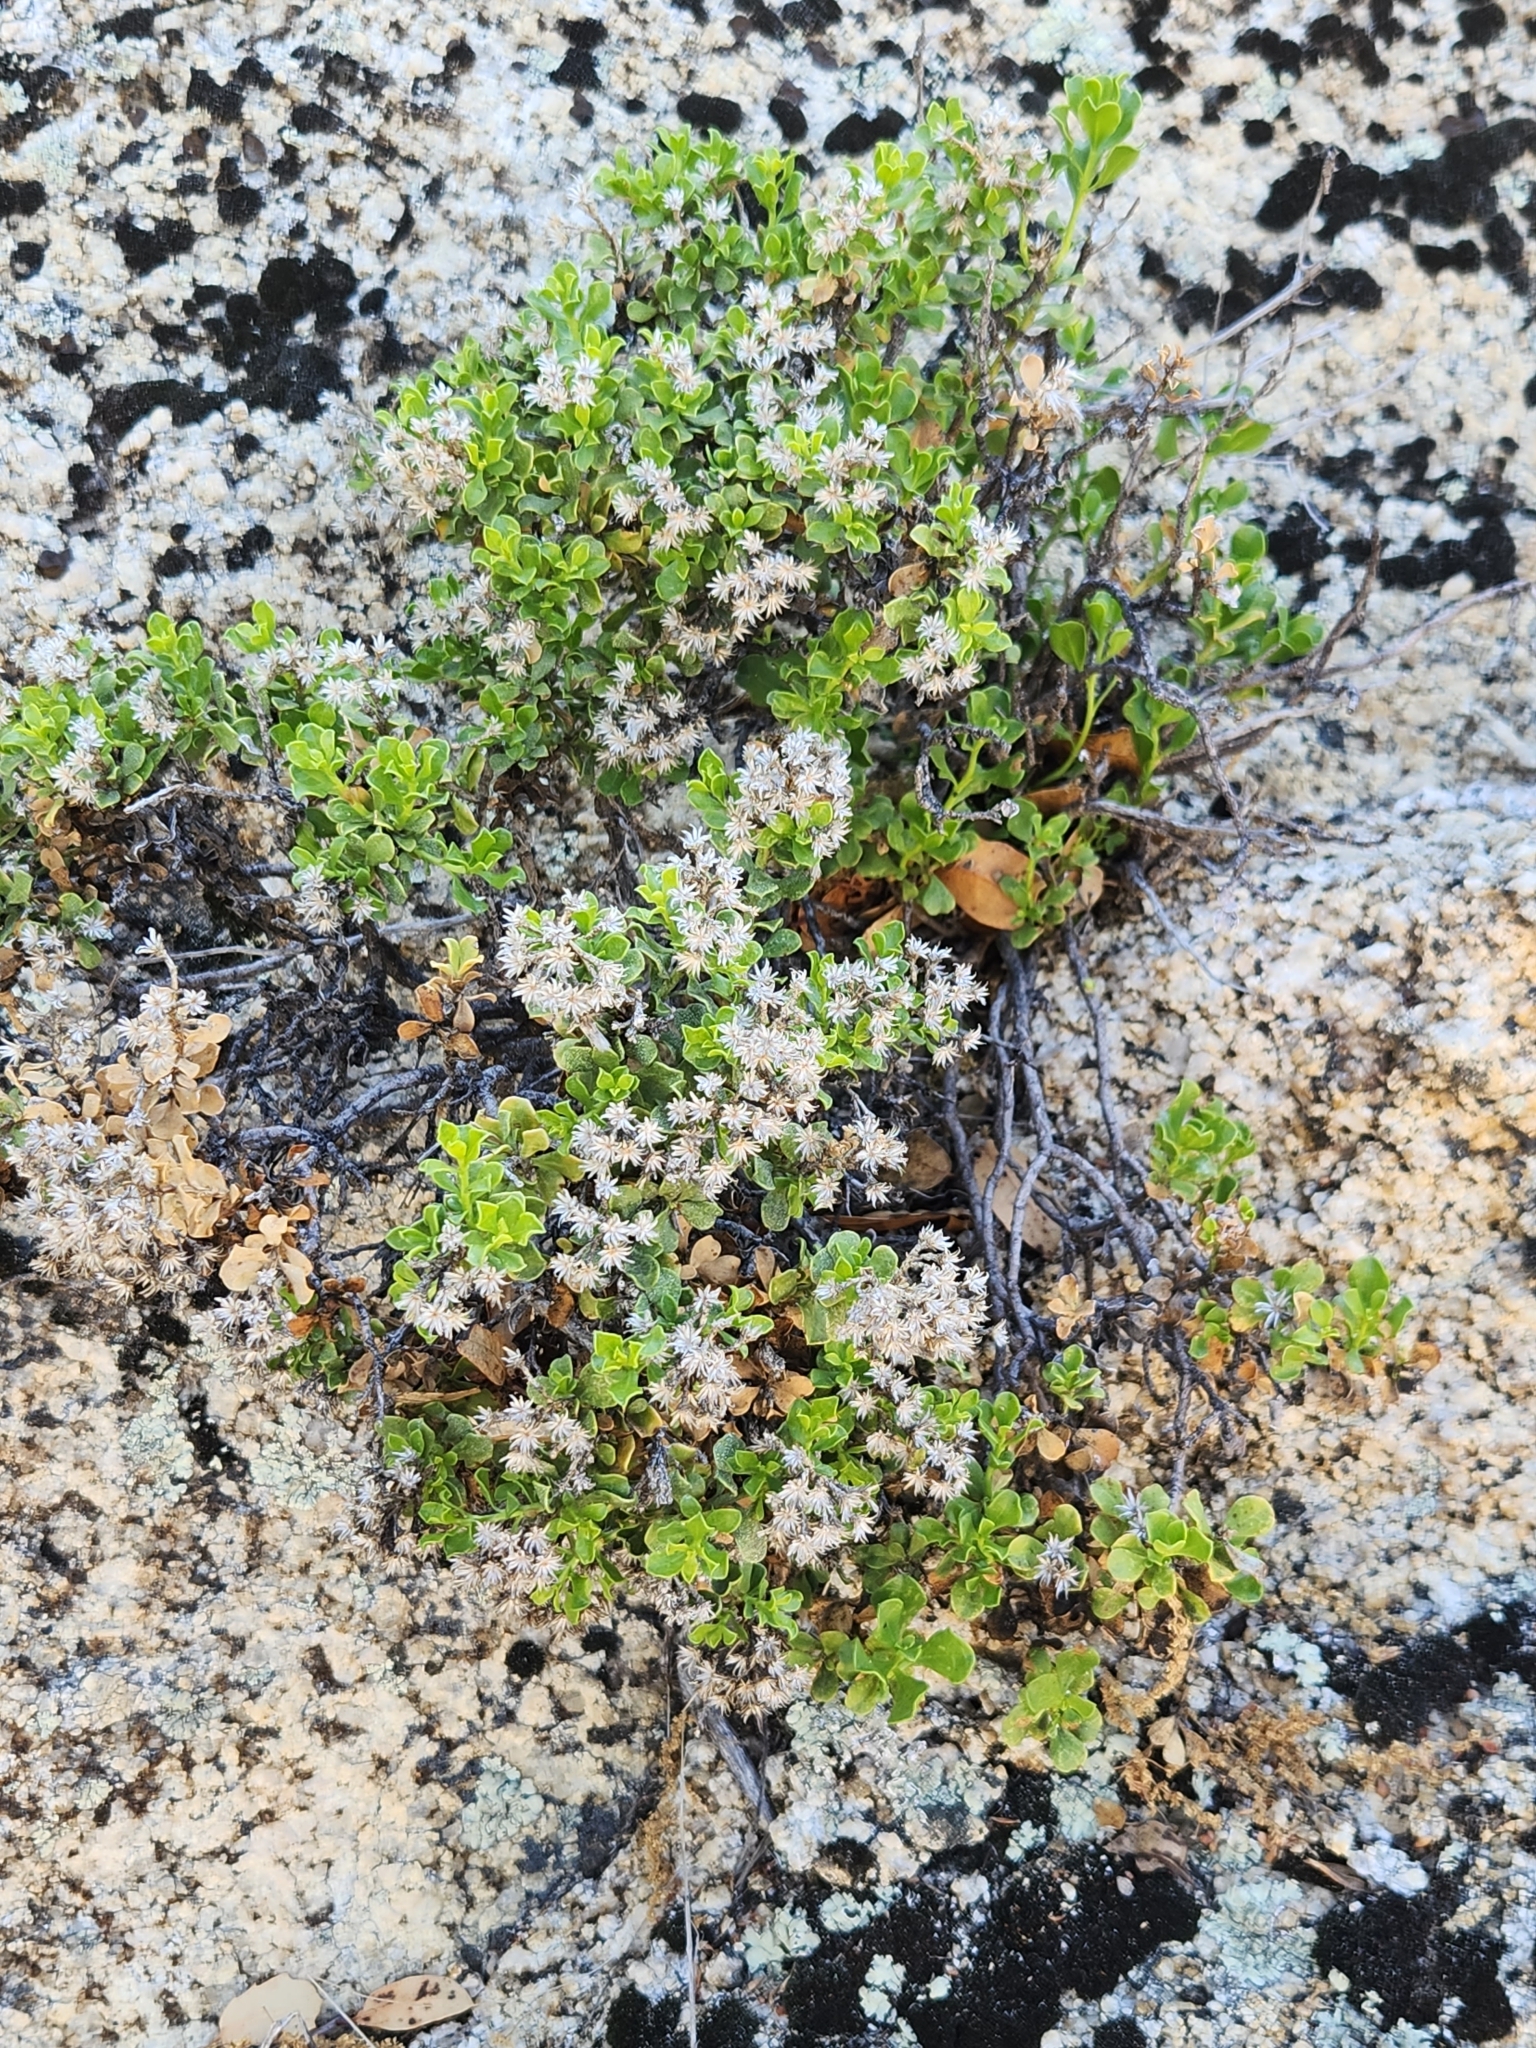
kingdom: Plantae
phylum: Tracheophyta
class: Magnoliopsida
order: Asterales
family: Asteraceae
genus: Ericameria
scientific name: Ericameria cuneata
